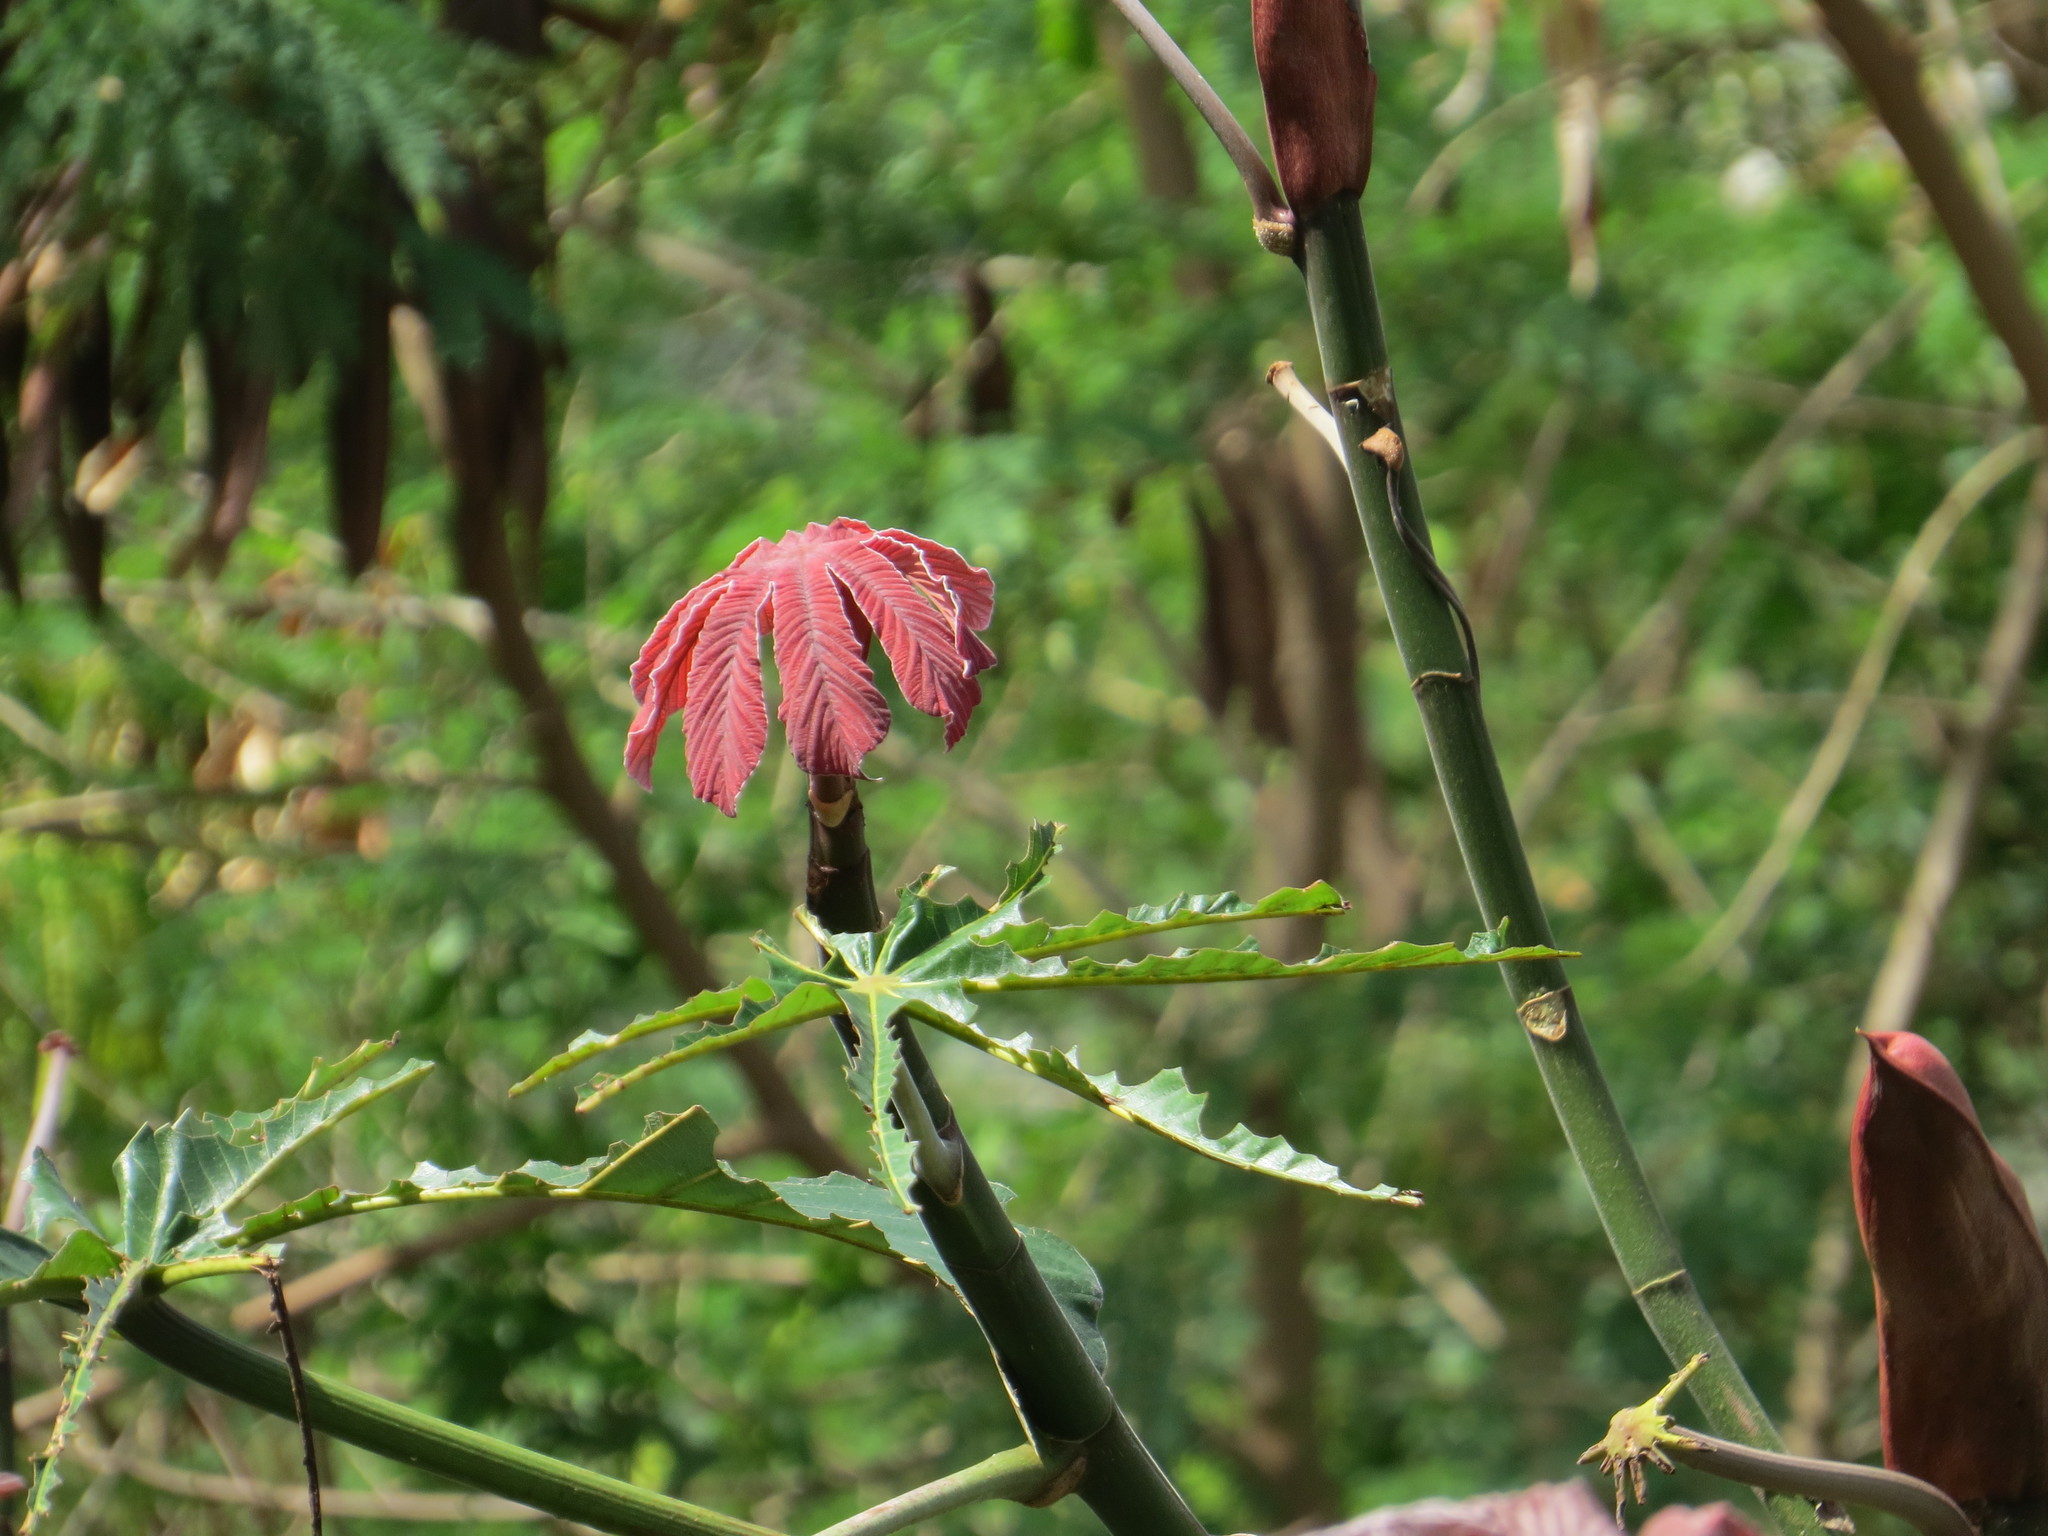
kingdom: Plantae
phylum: Tracheophyta
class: Magnoliopsida
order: Rosales
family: Urticaceae
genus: Cecropia
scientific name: Cecropia glaziovii
